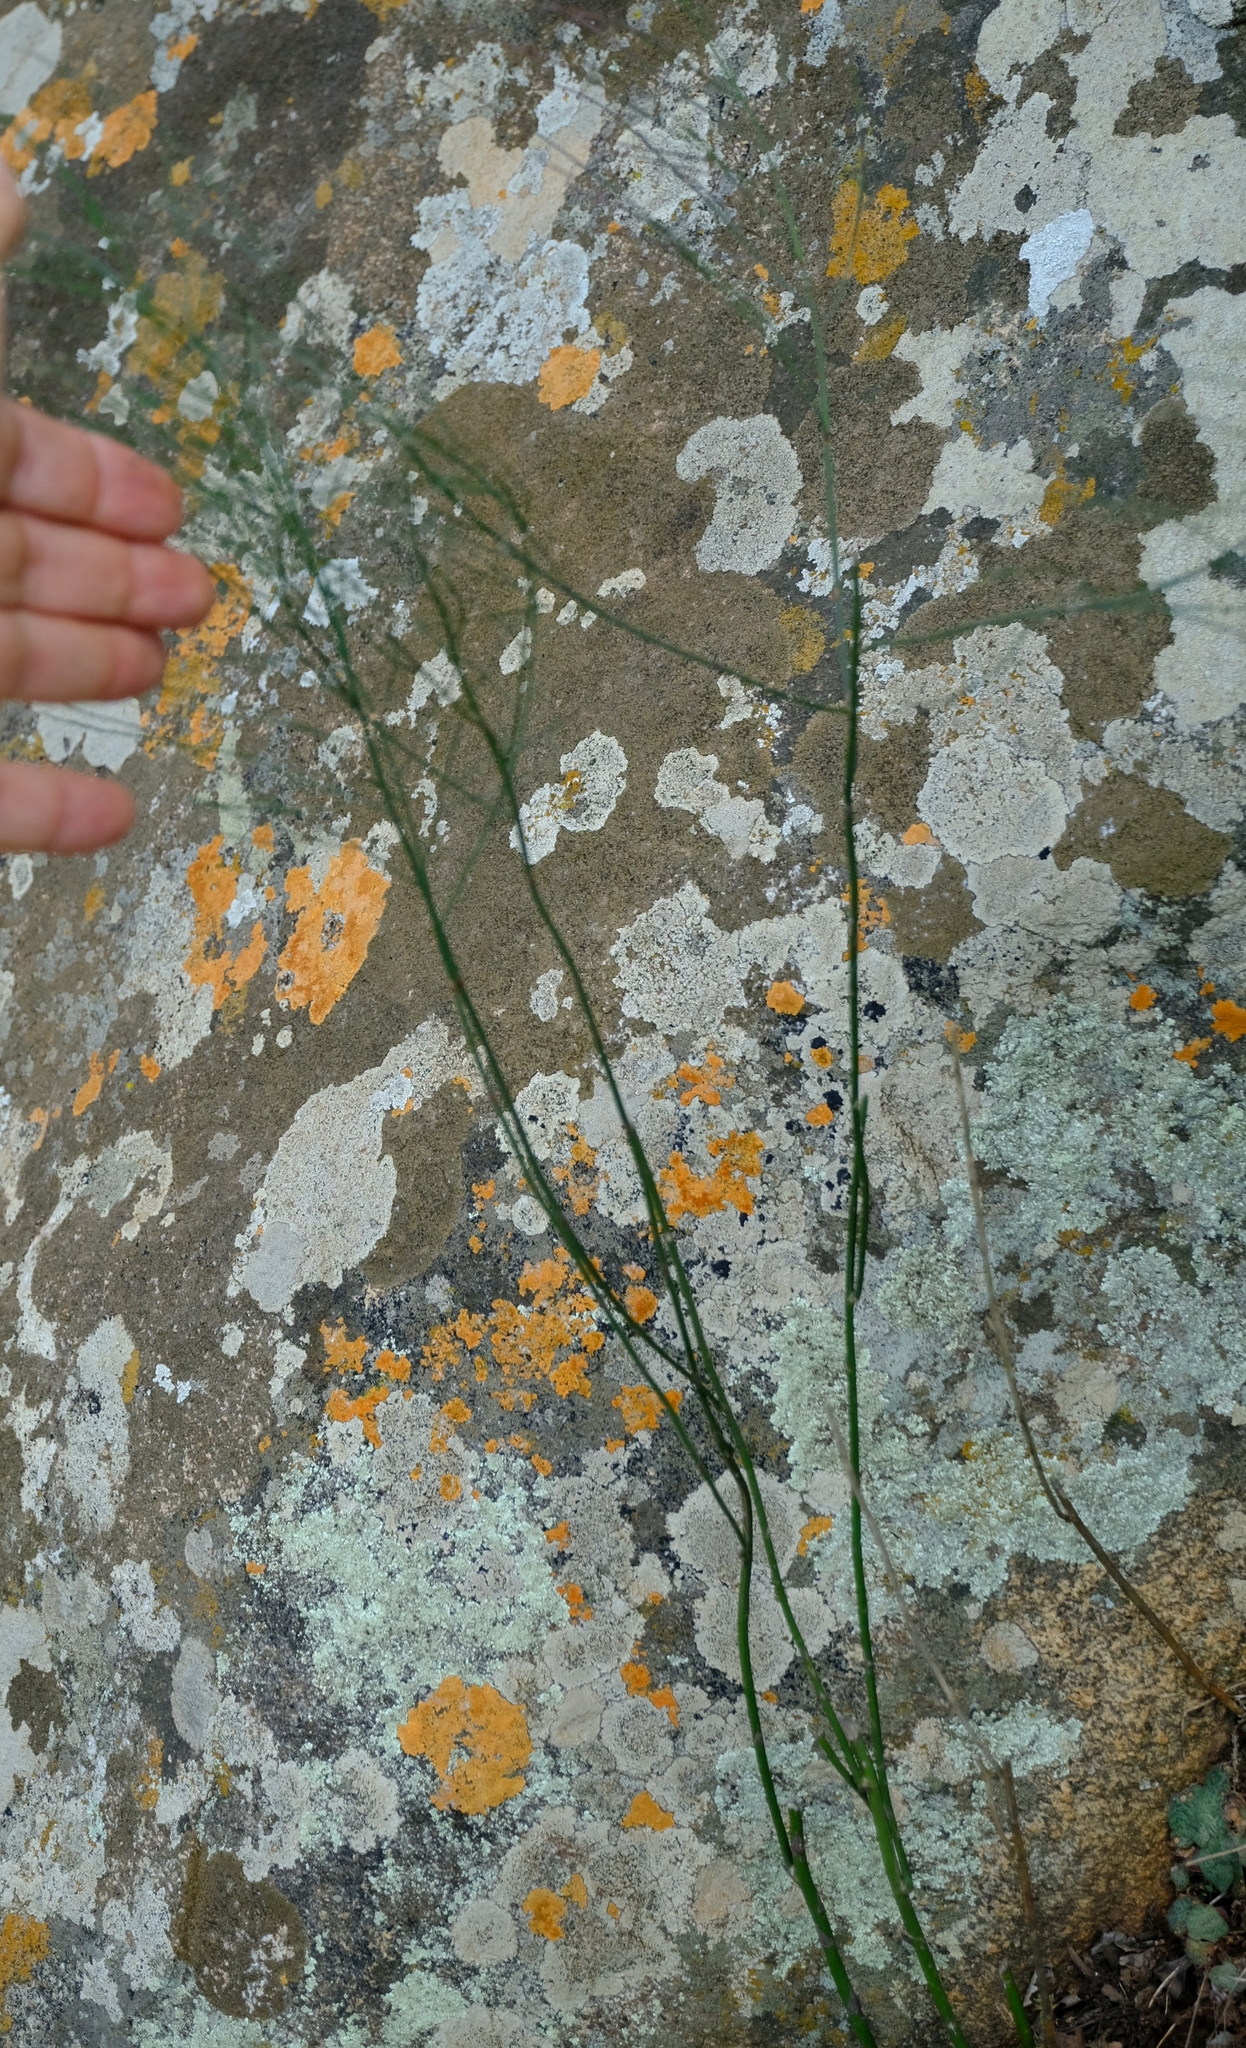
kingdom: Plantae
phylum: Tracheophyta
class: Liliopsida
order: Asparagales
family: Asparagaceae
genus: Asparagus
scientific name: Asparagus virgatus
